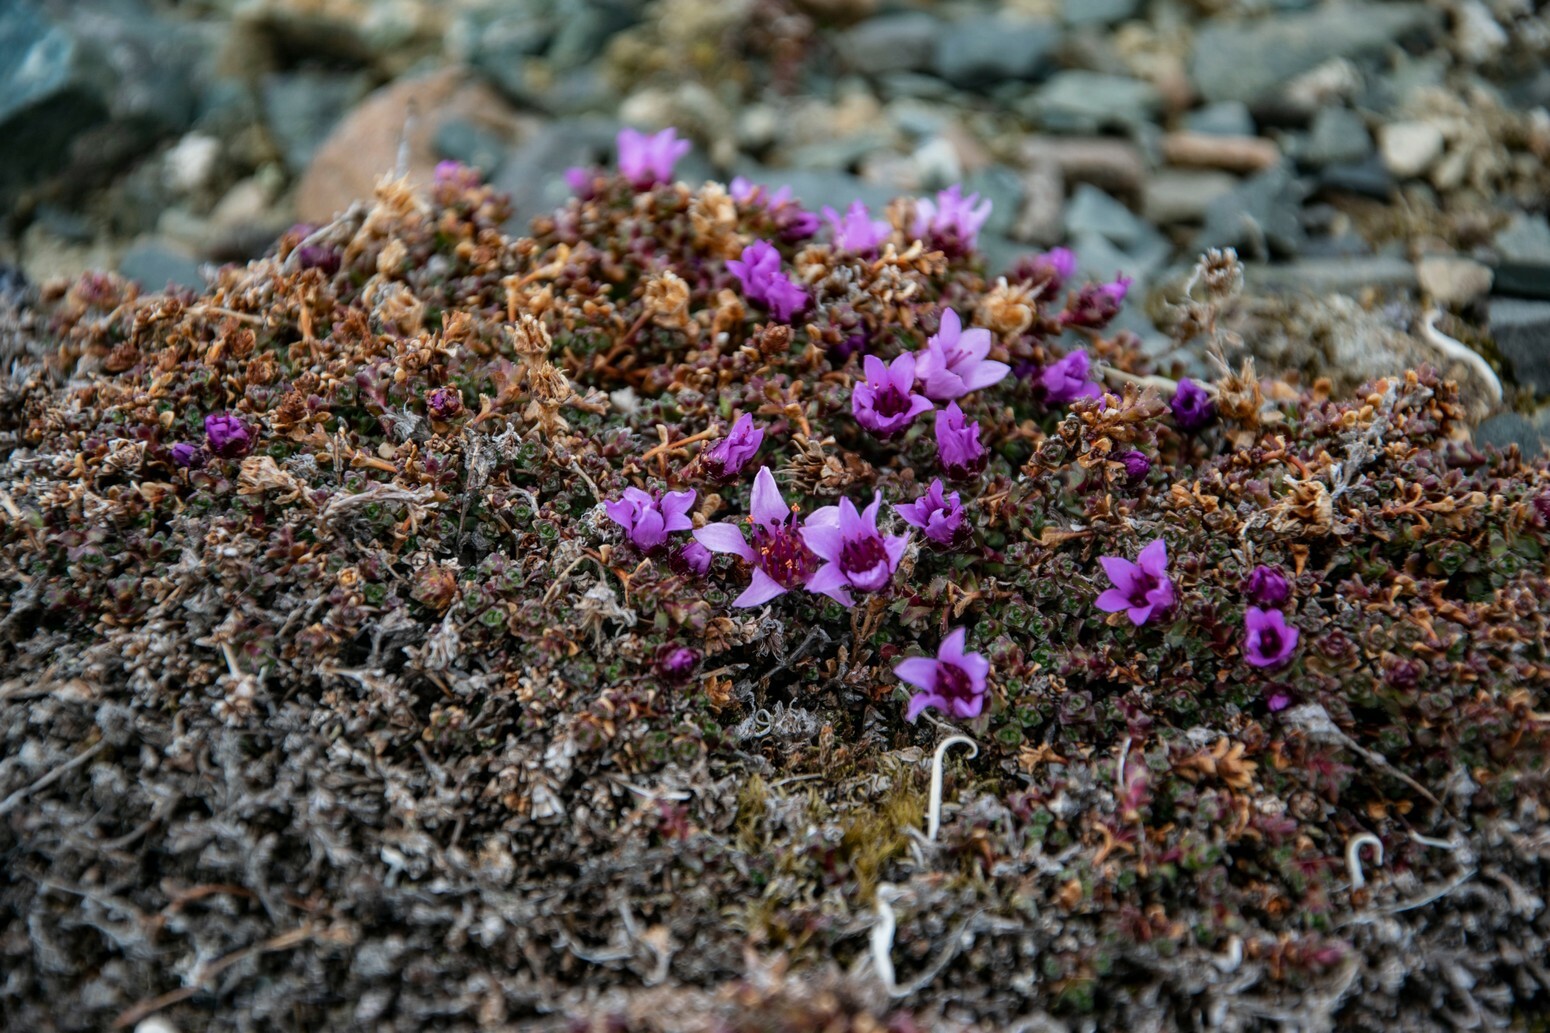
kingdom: Plantae
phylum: Tracheophyta
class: Magnoliopsida
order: Saxifragales
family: Saxifragaceae
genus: Saxifraga
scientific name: Saxifraga oppositifolia
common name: Purple saxifrage
